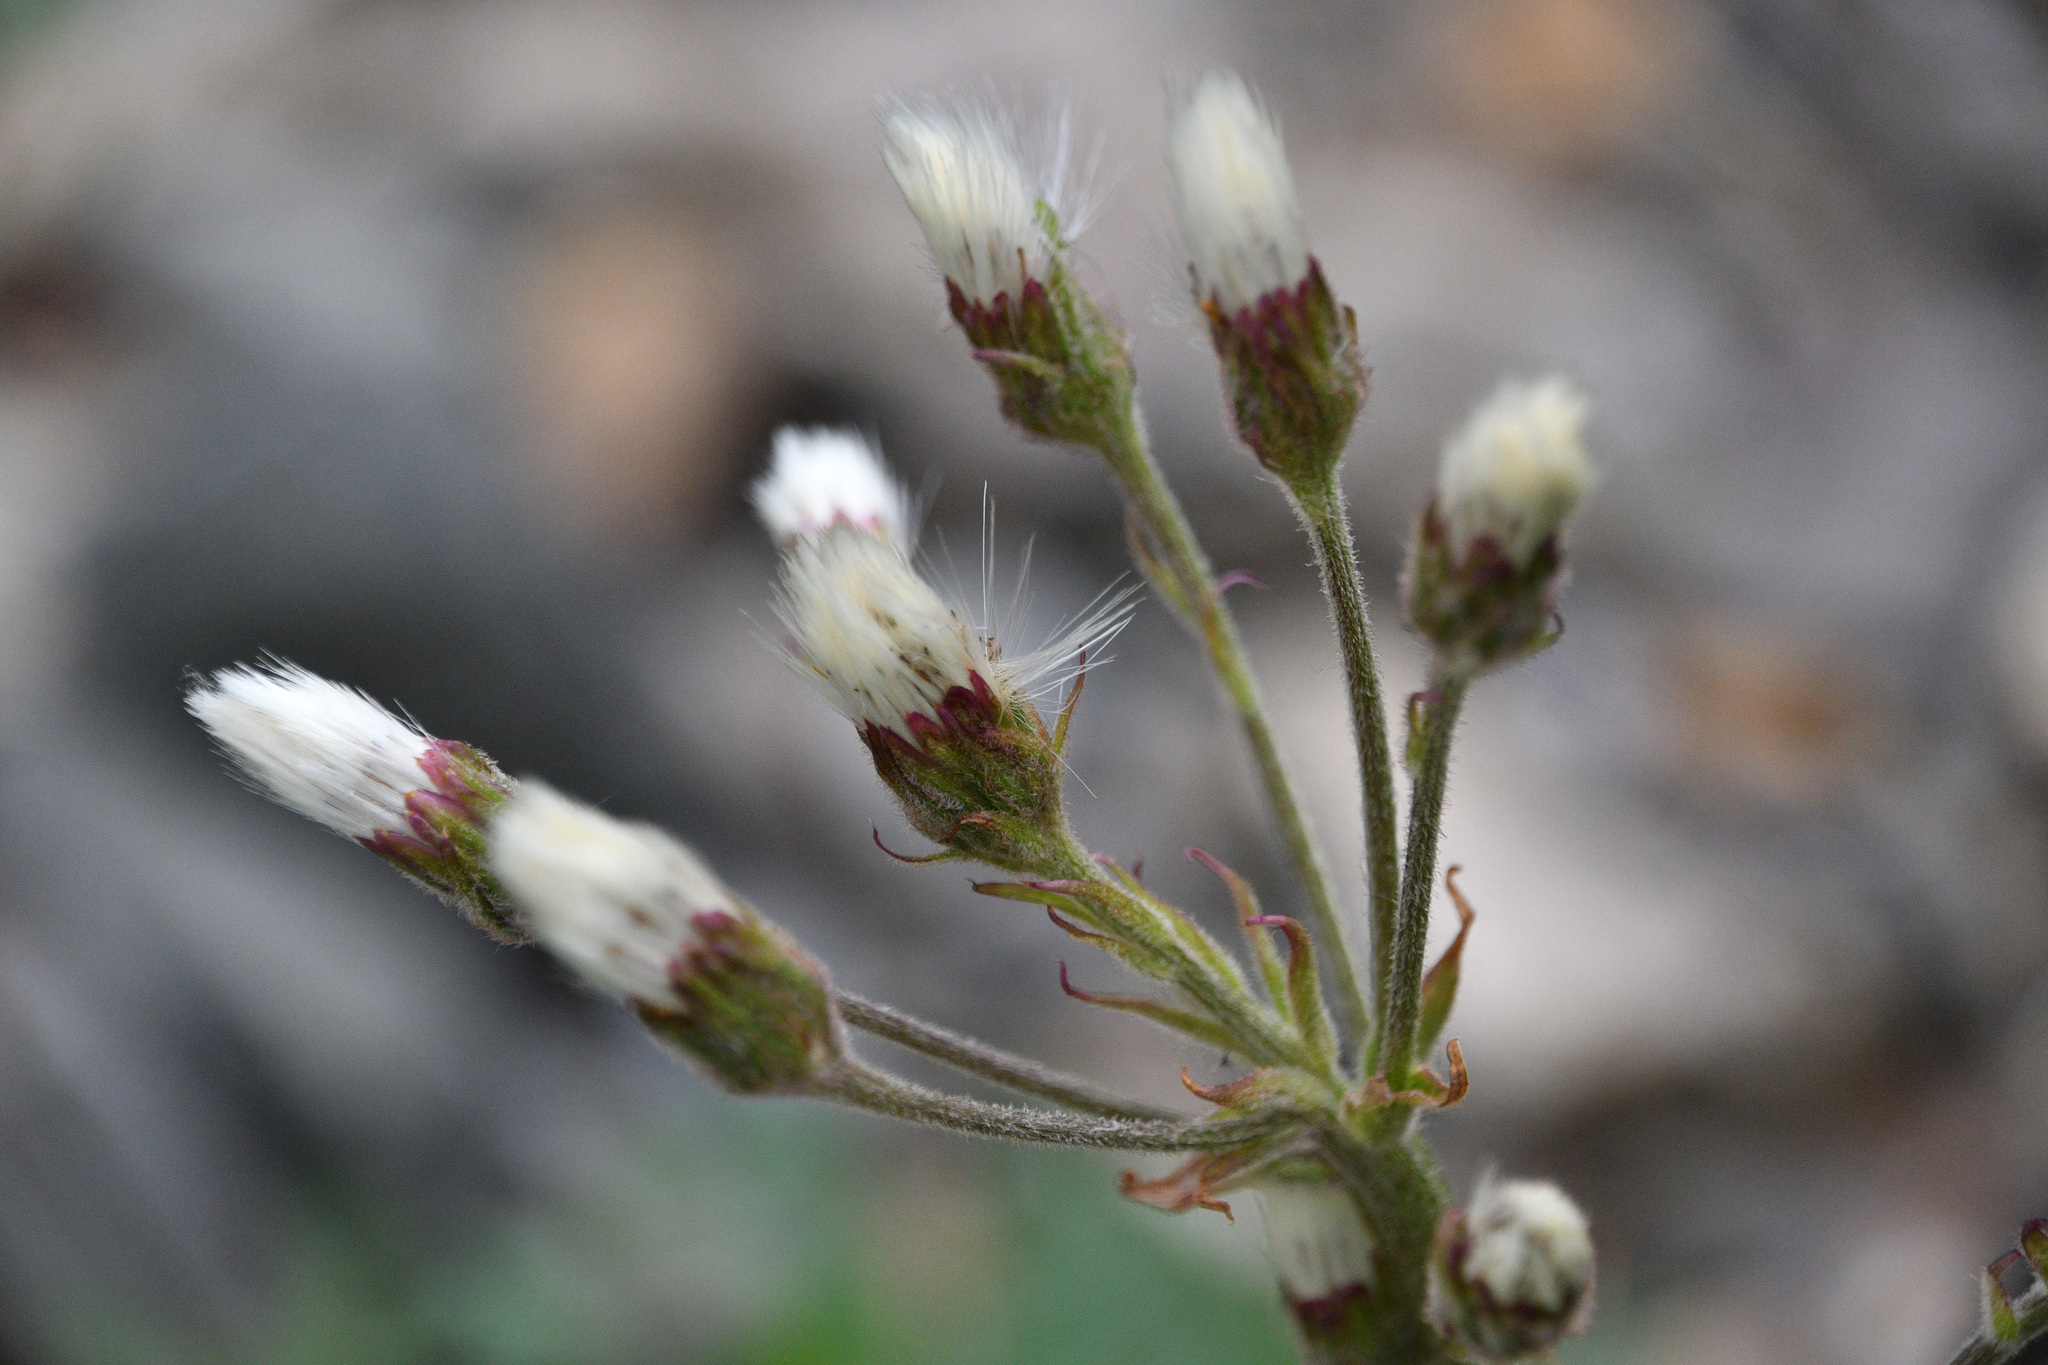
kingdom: Plantae
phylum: Tracheophyta
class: Magnoliopsida
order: Asterales
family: Asteraceae
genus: Petasites
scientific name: Petasites frigidus
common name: Arctic butterbur
